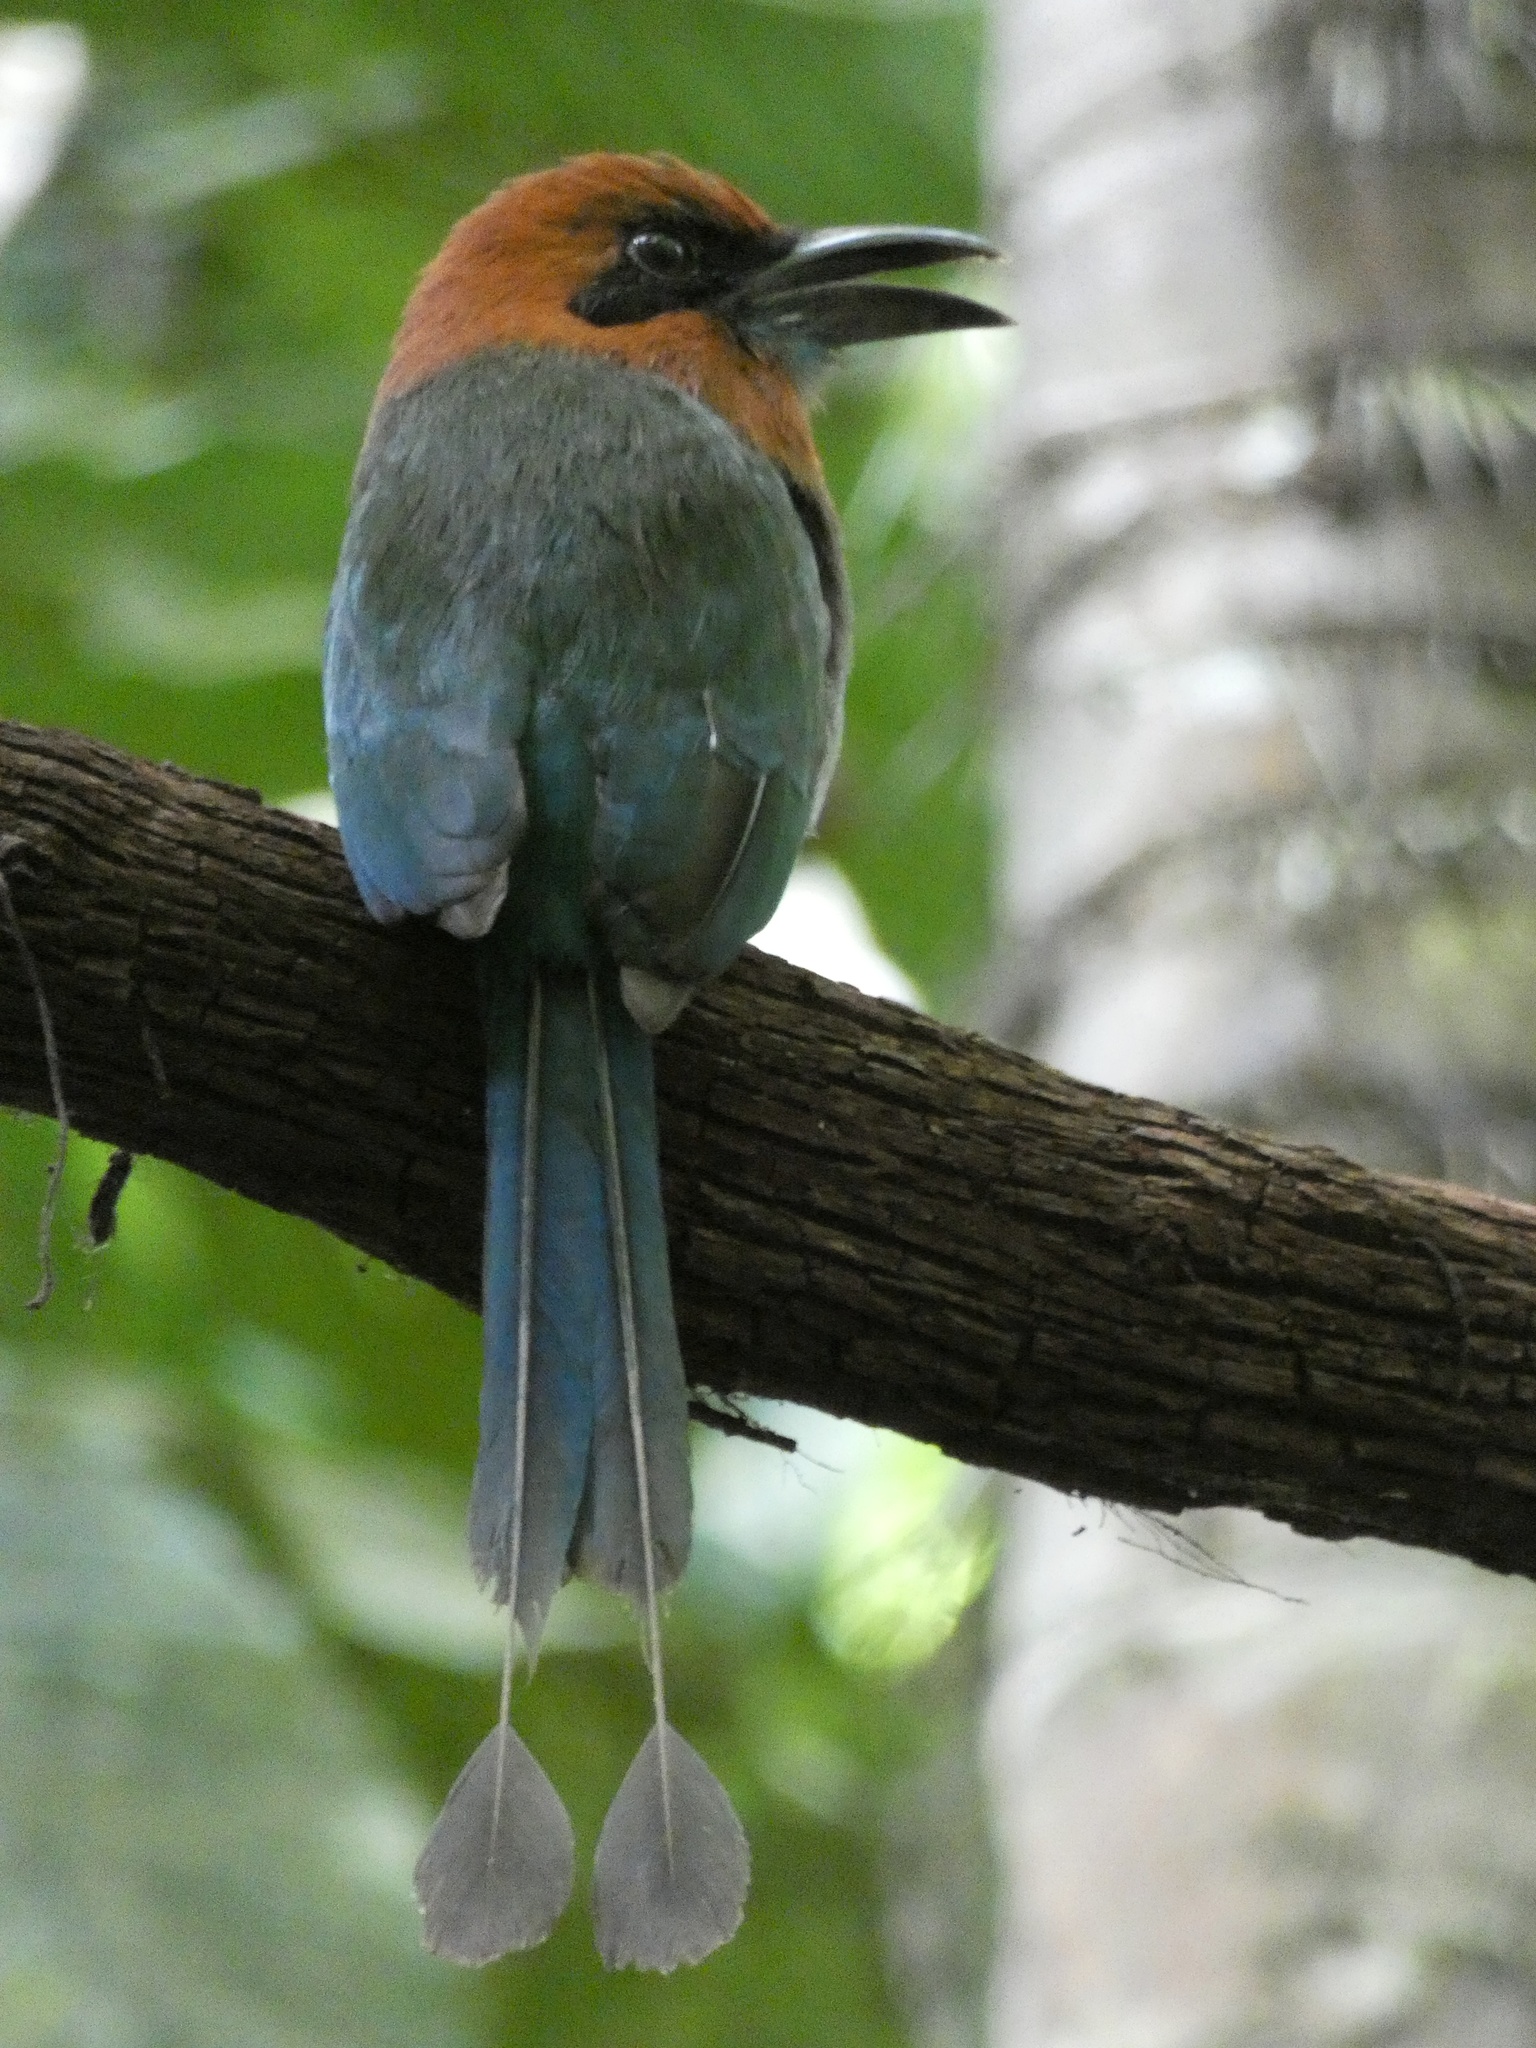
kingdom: Animalia
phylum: Chordata
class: Aves
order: Coraciiformes
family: Momotidae
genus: Electron
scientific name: Electron platyrhynchum
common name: Broad-billed motmot
